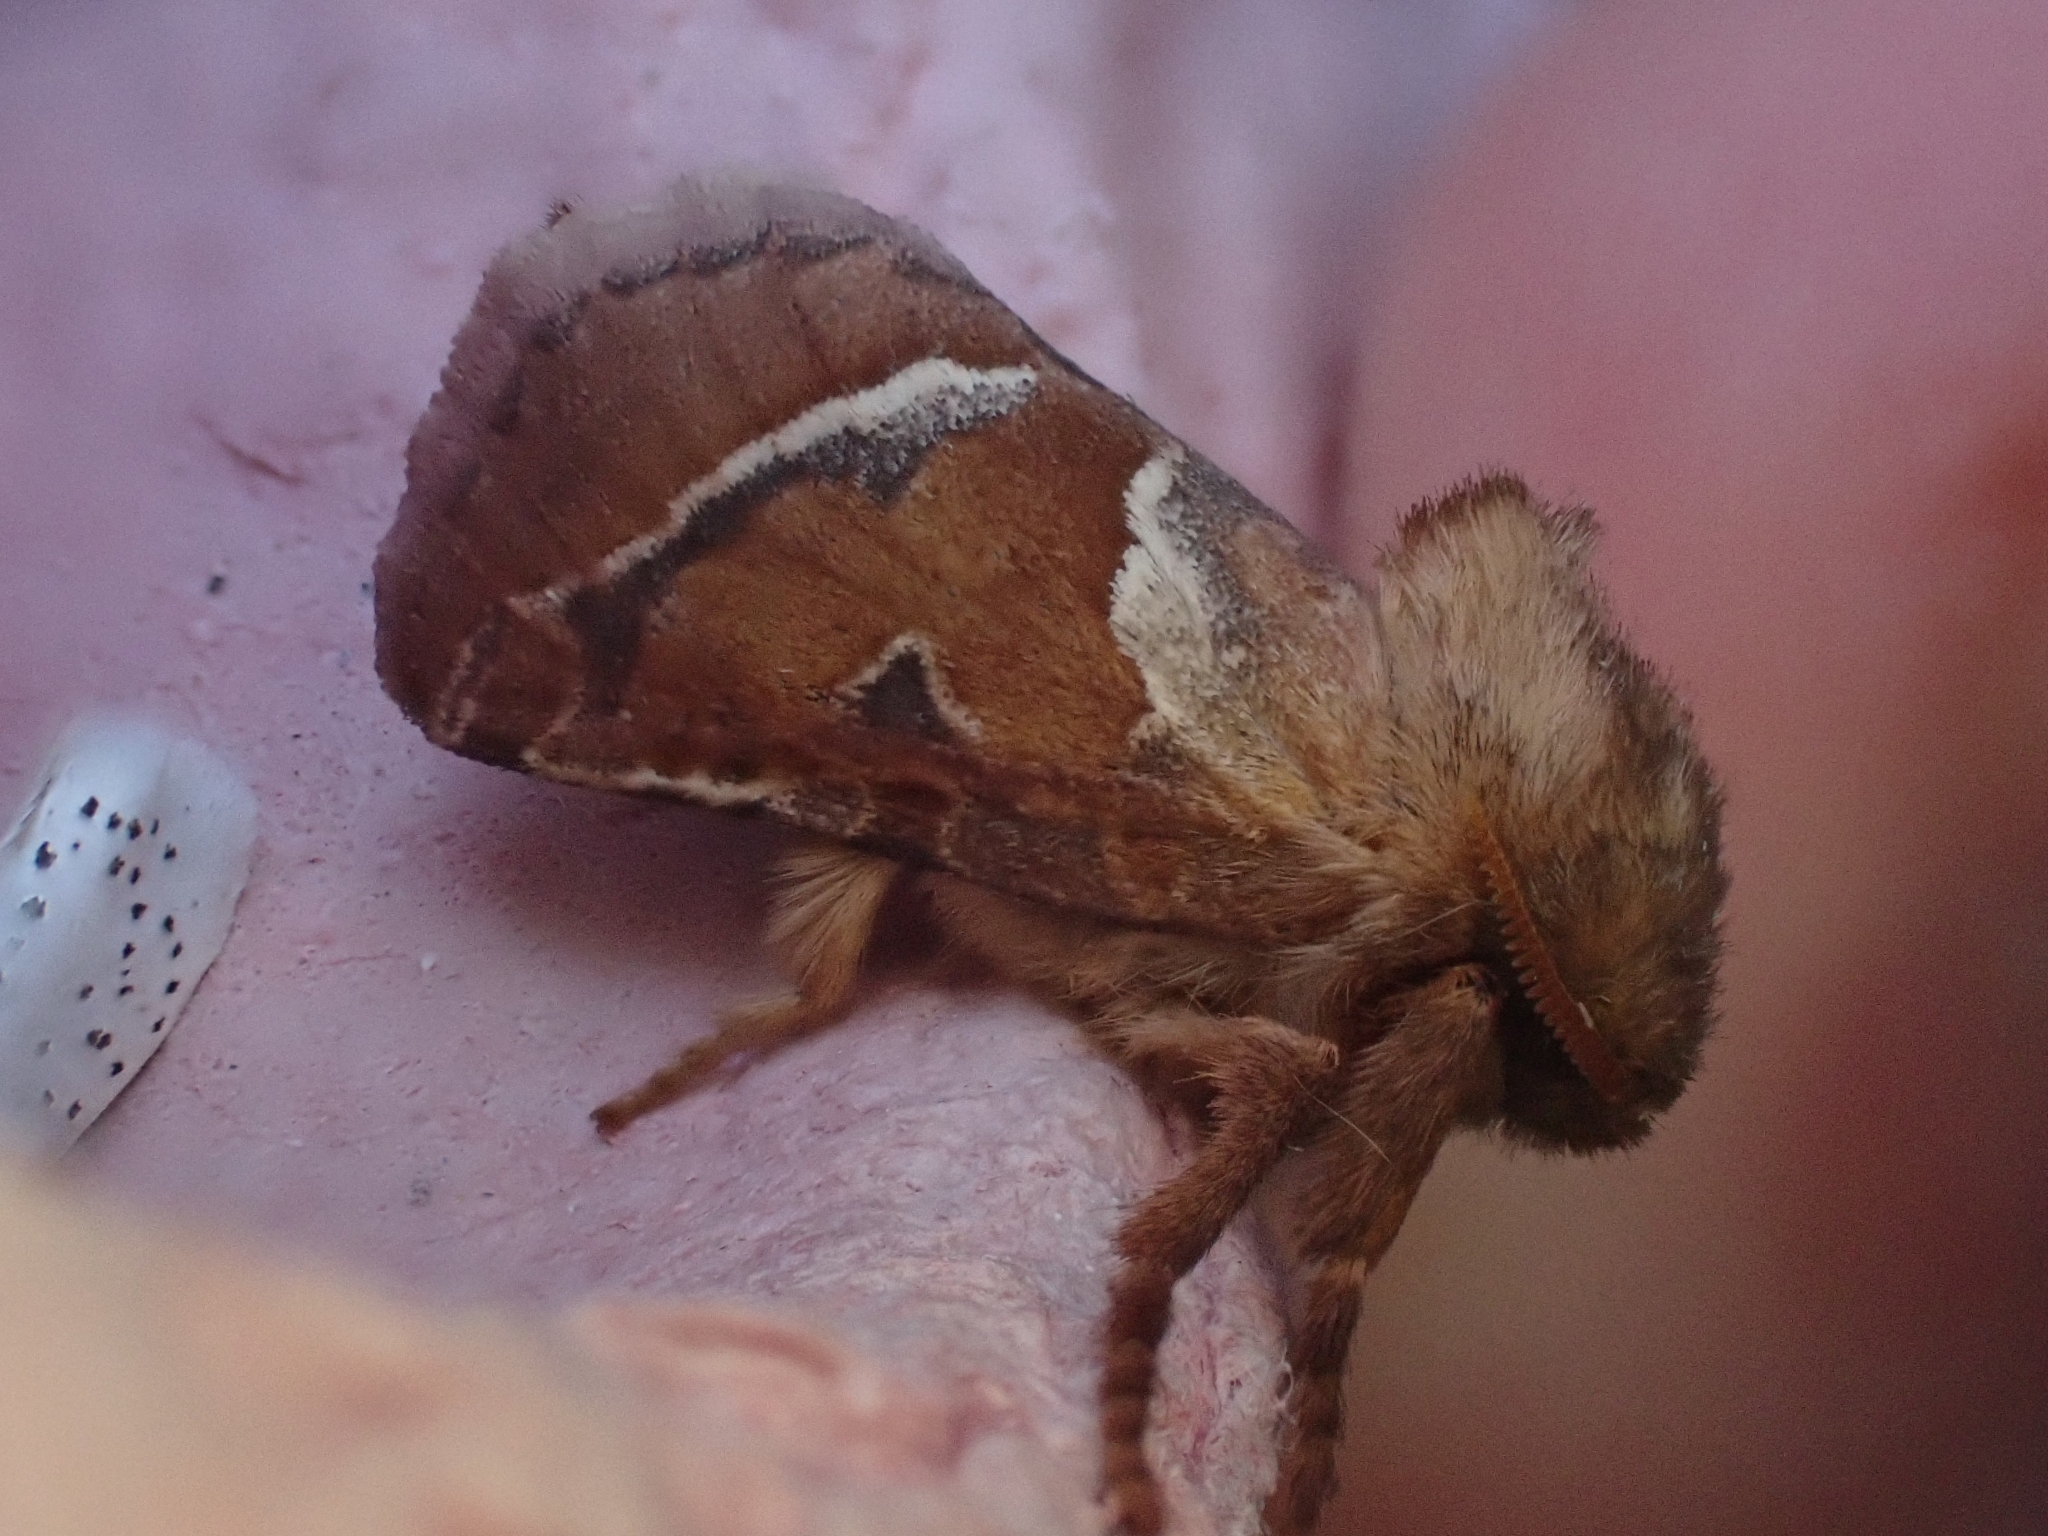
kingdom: Animalia
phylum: Arthropoda
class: Insecta
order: Lepidoptera
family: Hepialidae
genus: Triodia
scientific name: Triodia sylvina
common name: Orange swift
